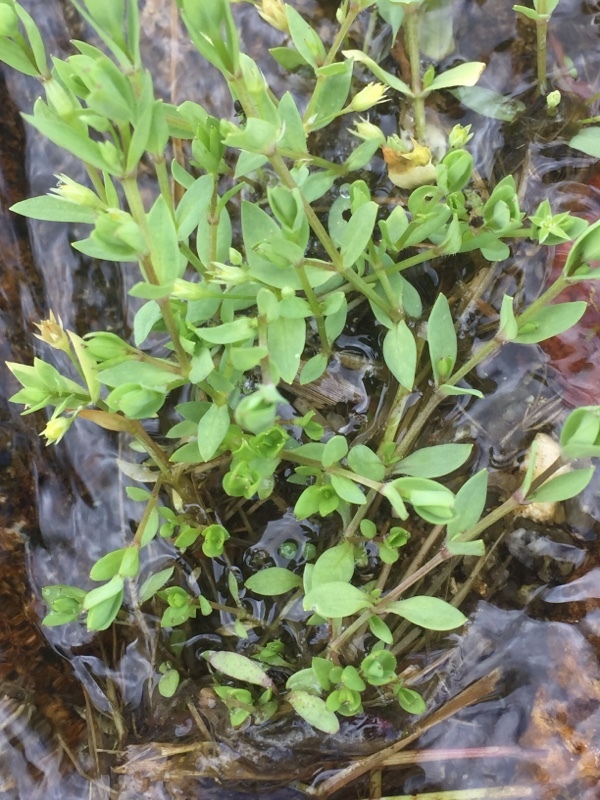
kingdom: Plantae
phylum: Tracheophyta
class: Magnoliopsida
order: Caryophyllales
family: Caryophyllaceae
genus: Stellaria
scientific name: Stellaria alsine
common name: Bog stitchwort
